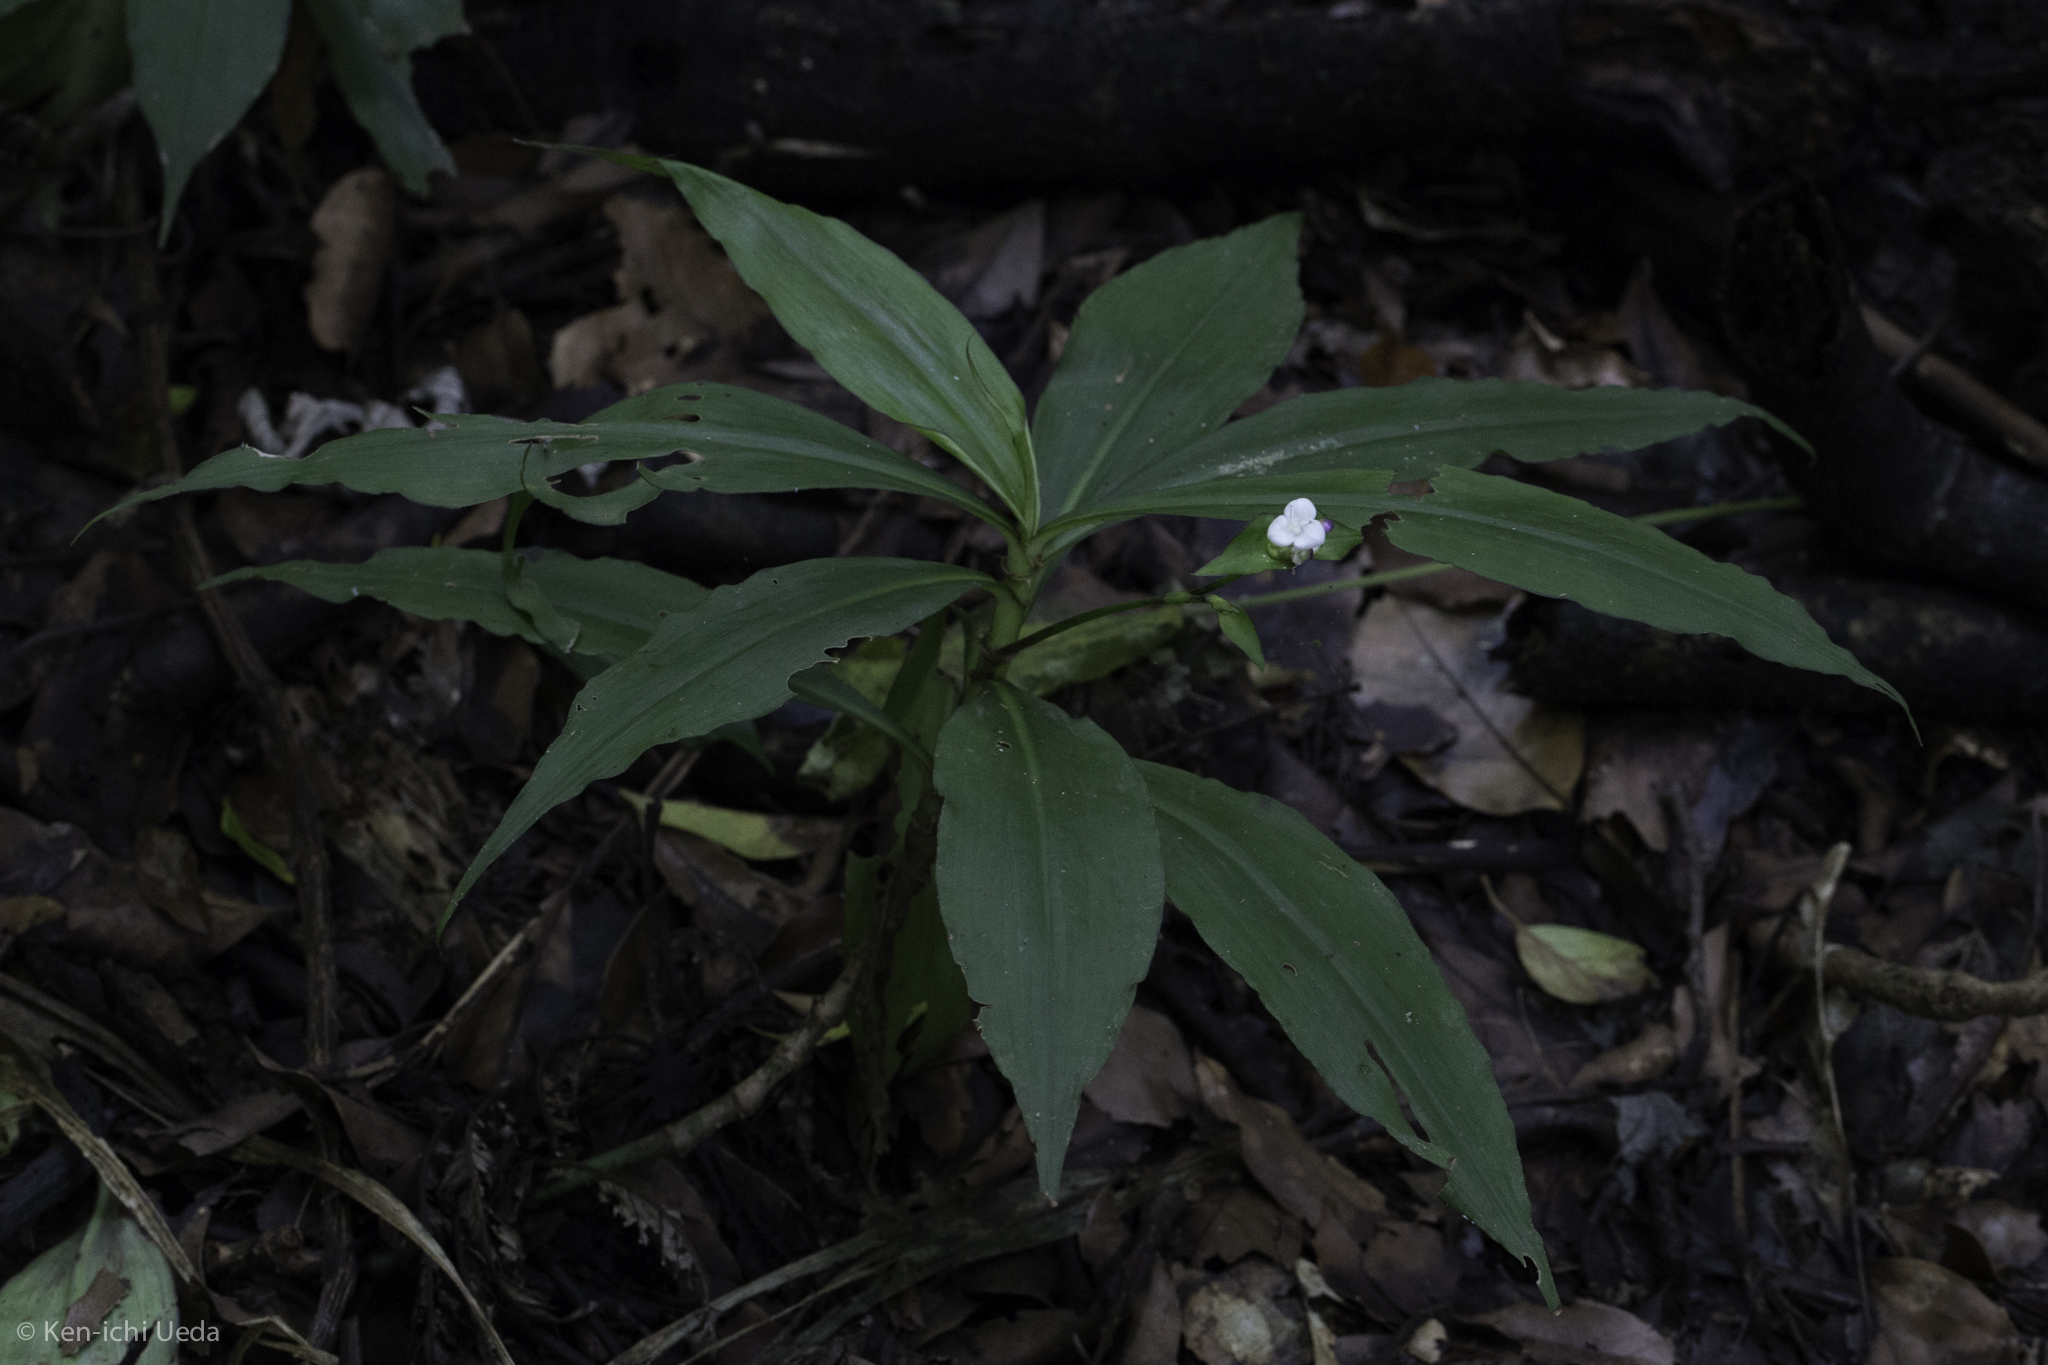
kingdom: Plantae
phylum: Tracheophyta
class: Liliopsida
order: Commelinales
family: Commelinaceae
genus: Tradescantia
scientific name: Tradescantia zanonia
